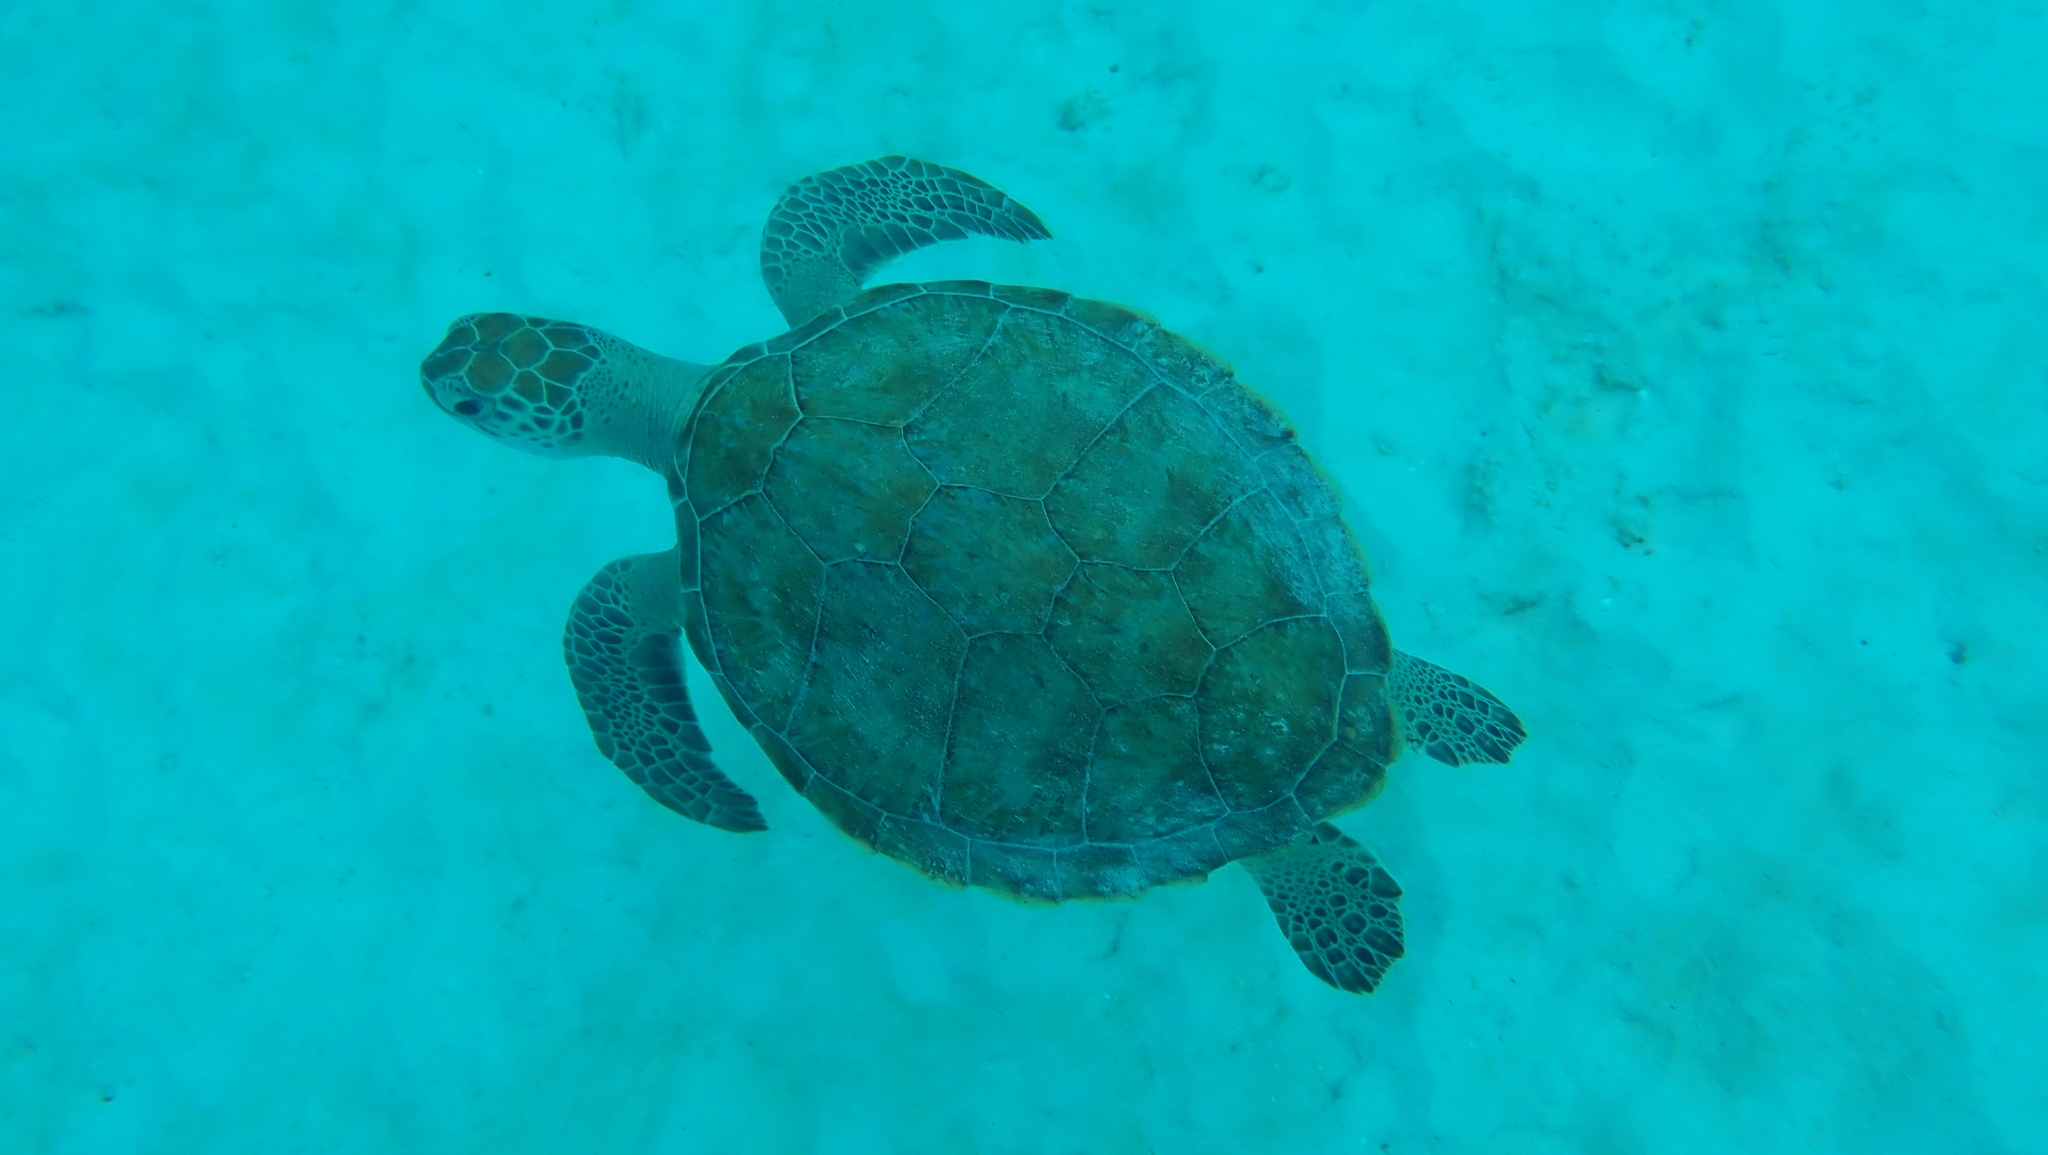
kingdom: Animalia
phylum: Chordata
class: Testudines
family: Cheloniidae
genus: Chelonia
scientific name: Chelonia mydas
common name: Green turtle
